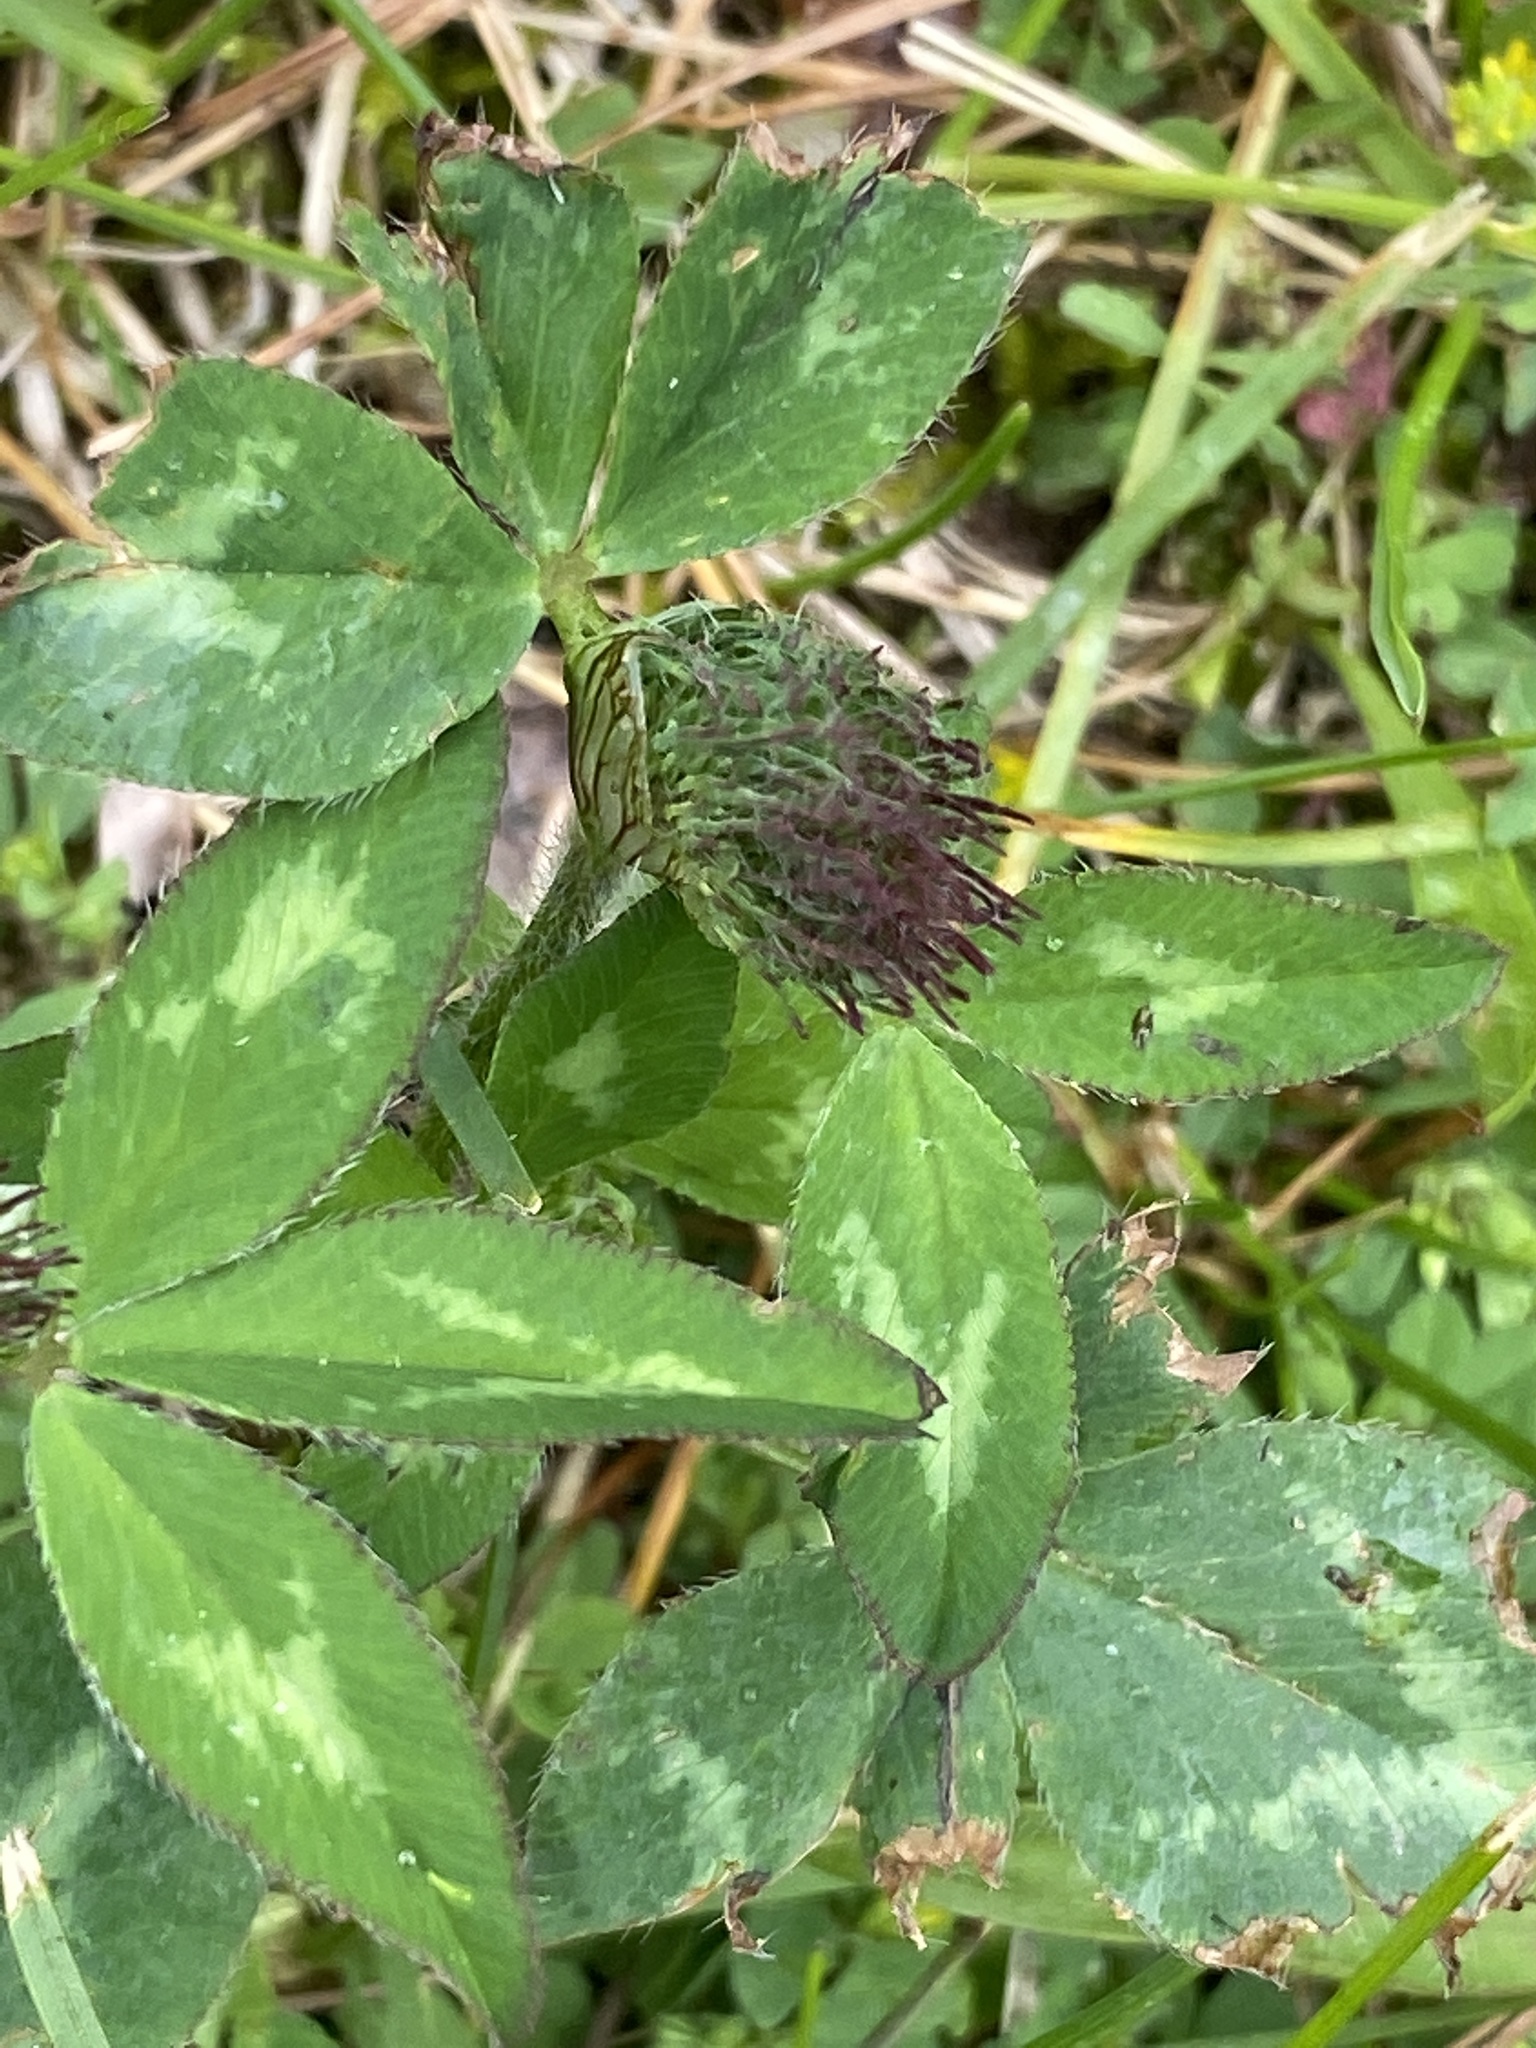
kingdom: Plantae
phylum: Tracheophyta
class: Magnoliopsida
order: Fabales
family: Fabaceae
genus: Trifolium
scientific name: Trifolium pratense
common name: Red clover
